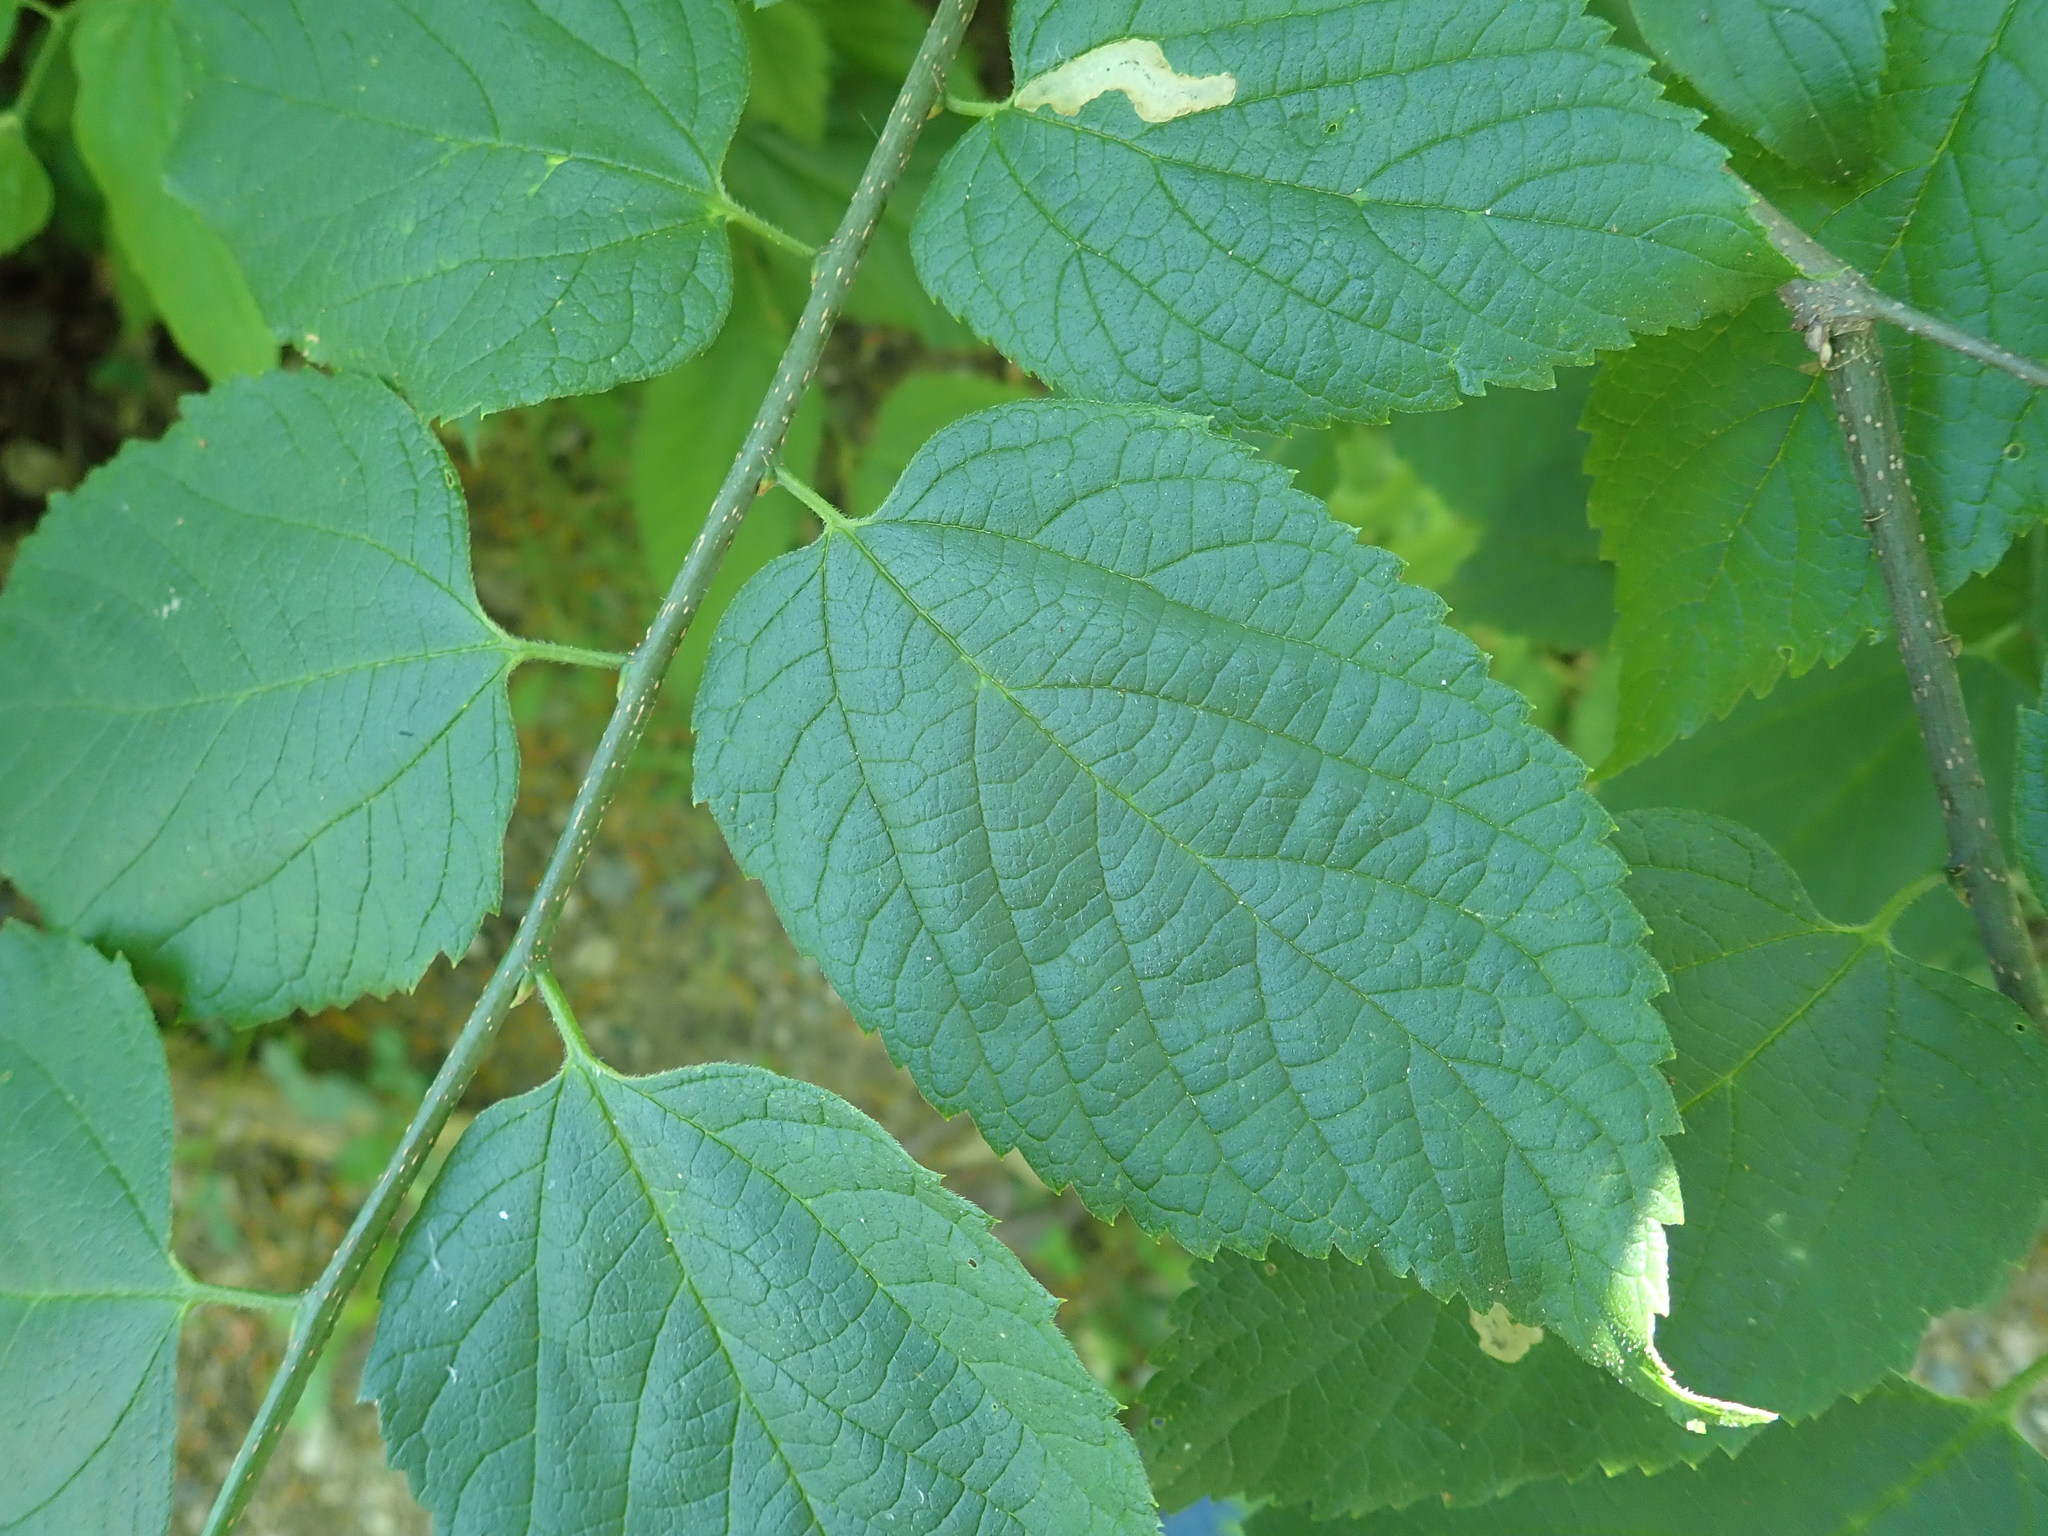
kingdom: Plantae
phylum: Tracheophyta
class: Magnoliopsida
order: Rosales
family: Cannabaceae
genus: Celtis
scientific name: Celtis occidentalis
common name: Common hackberry
